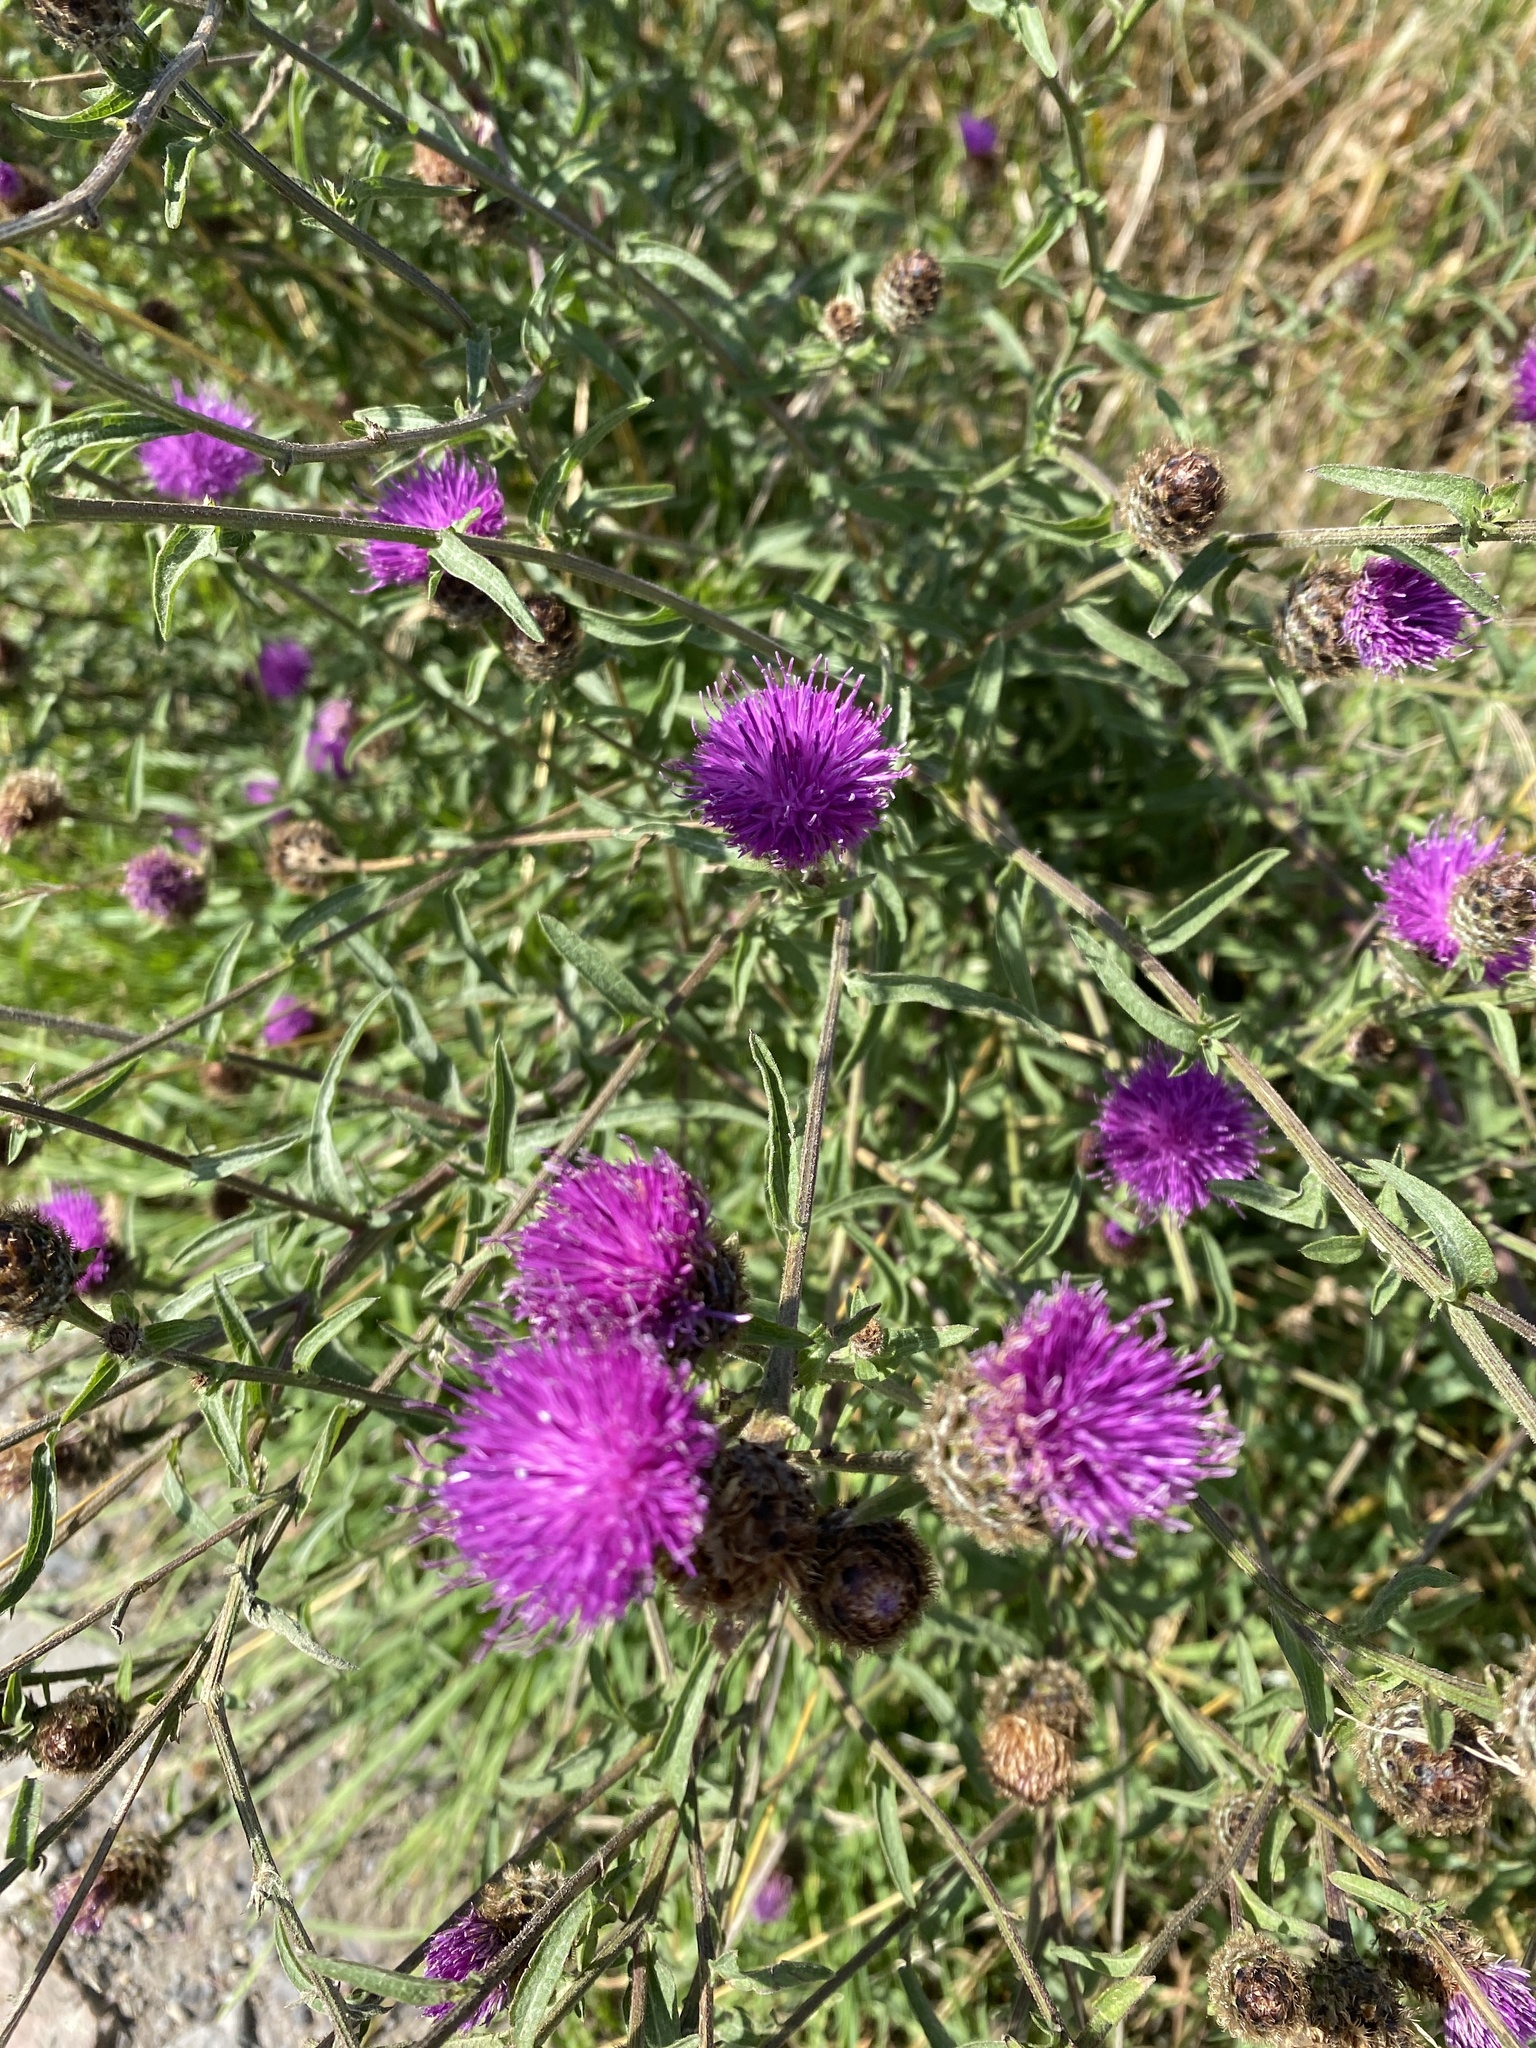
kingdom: Plantae
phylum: Tracheophyta
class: Magnoliopsida
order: Asterales
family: Asteraceae
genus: Centaurea
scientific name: Centaurea nigra
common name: Lesser knapweed
